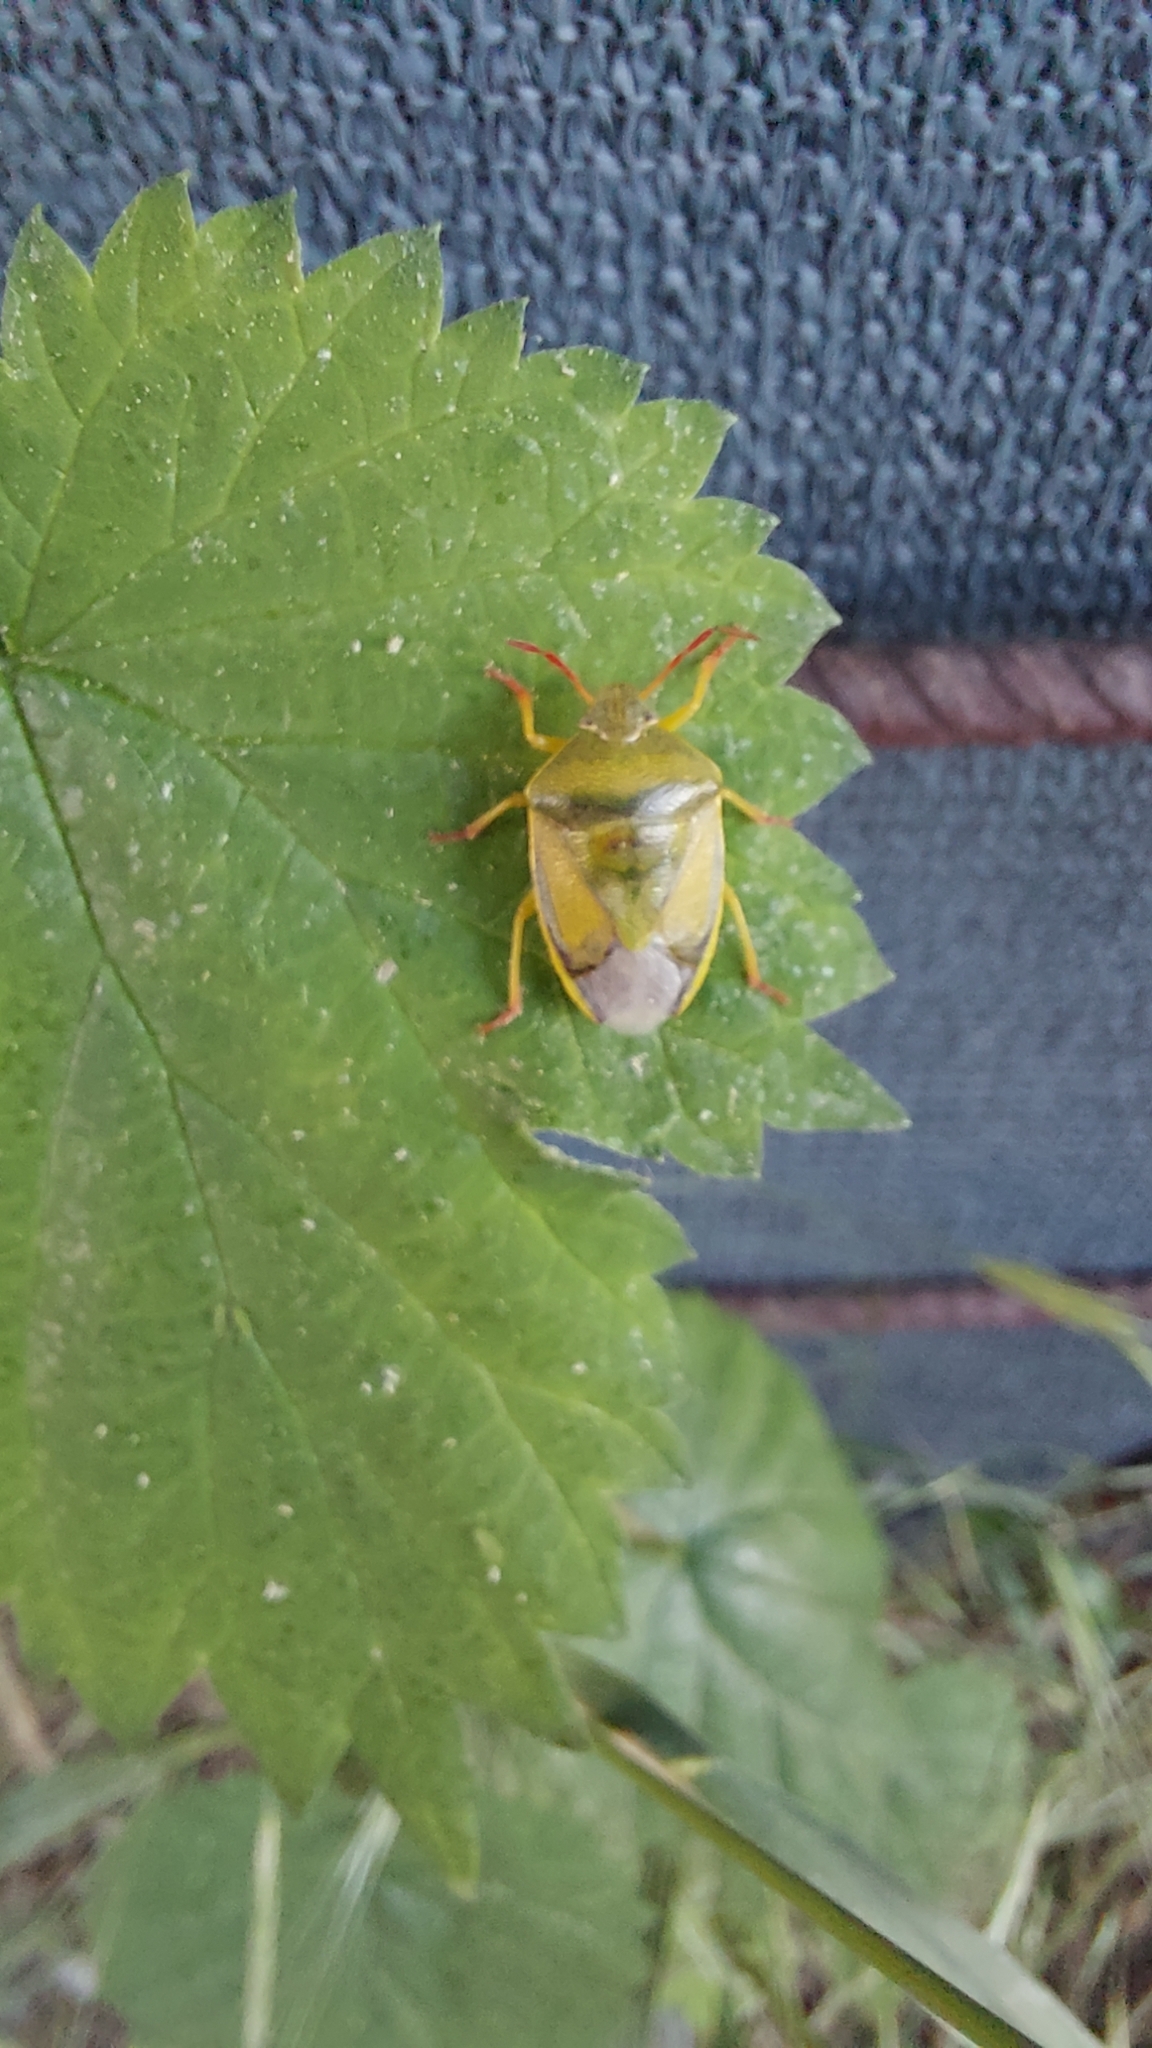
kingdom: Animalia
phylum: Arthropoda
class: Insecta
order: Hemiptera
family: Pentatomidae
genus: Piezodorus
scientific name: Piezodorus lituratus
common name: Stink bug
